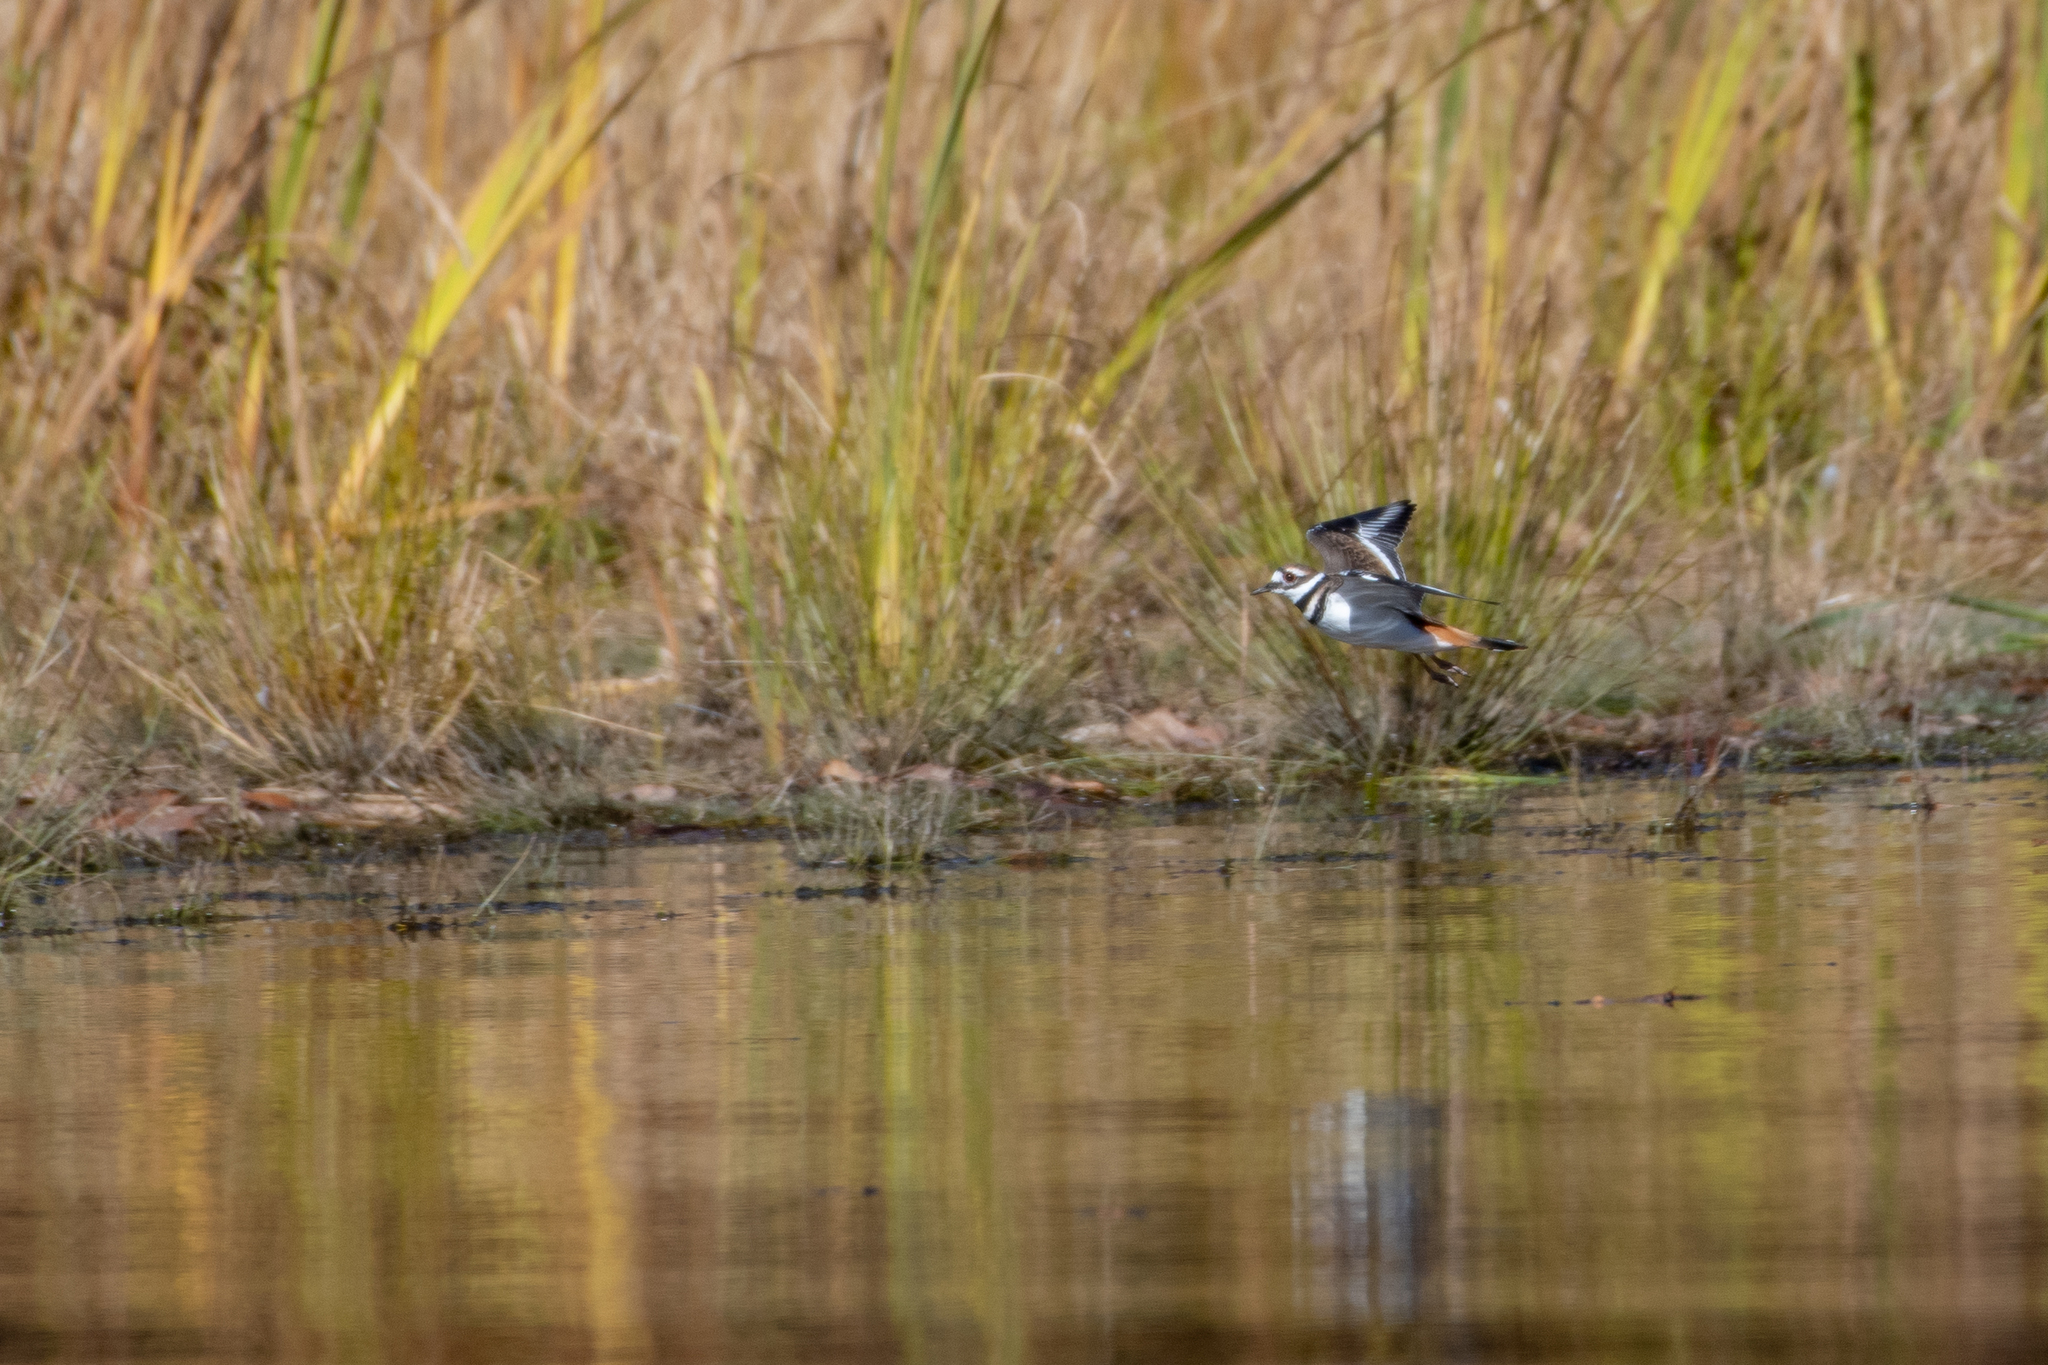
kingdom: Animalia
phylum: Chordata
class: Aves
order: Charadriiformes
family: Charadriidae
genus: Charadrius
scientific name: Charadrius vociferus
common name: Killdeer
